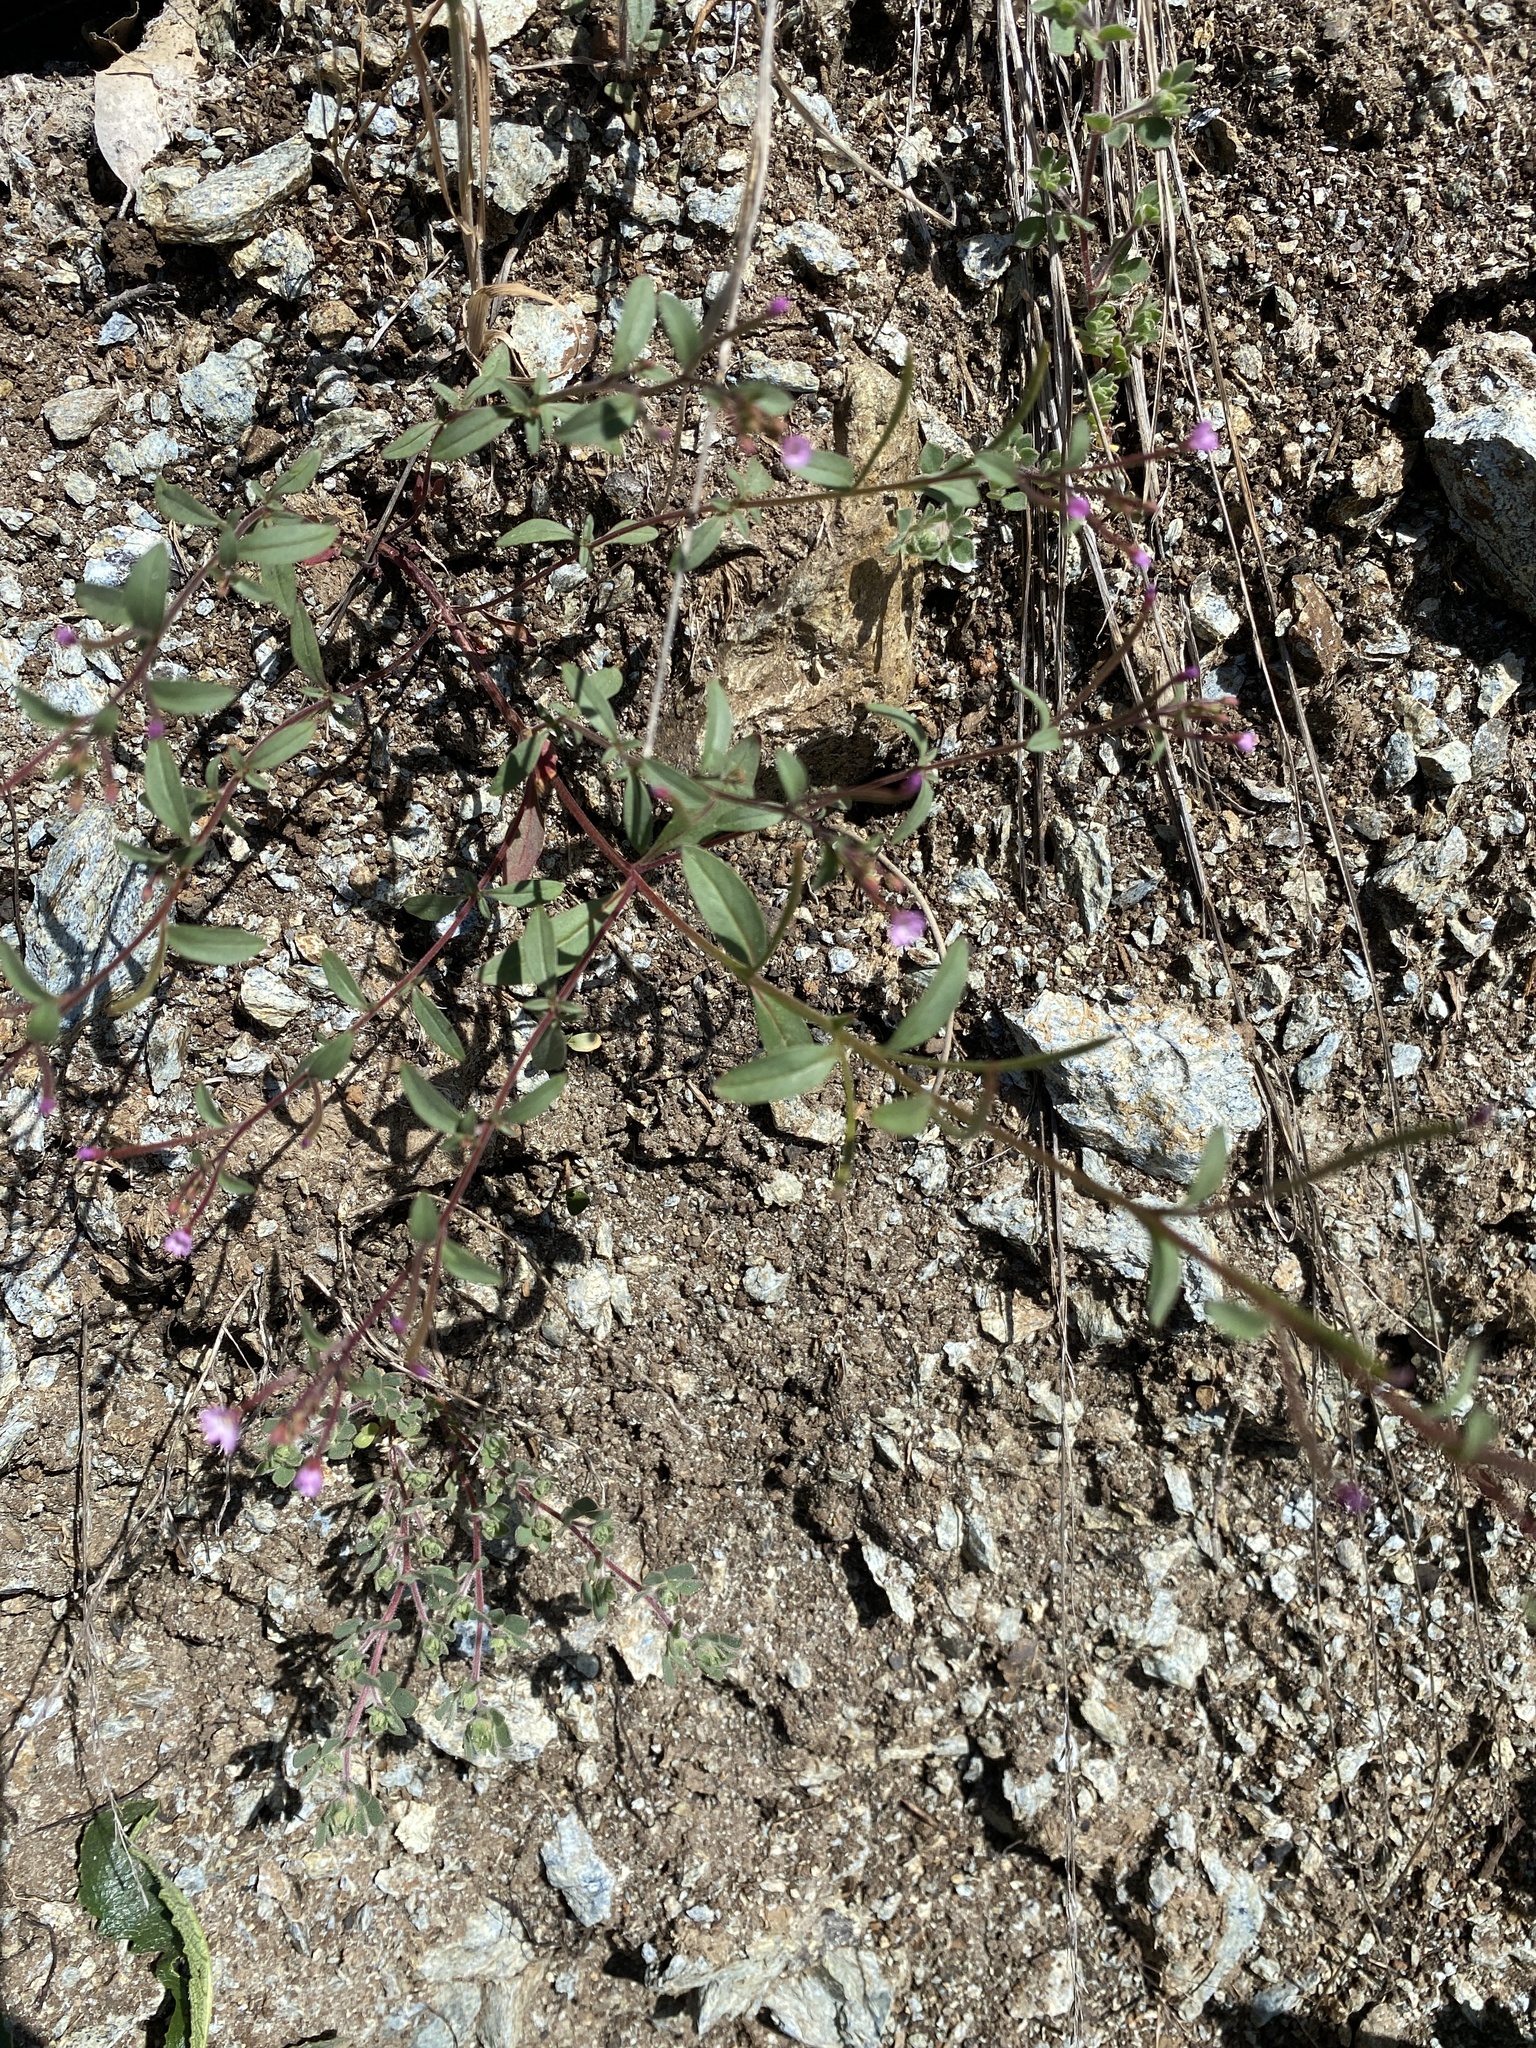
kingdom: Plantae
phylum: Tracheophyta
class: Magnoliopsida
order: Myrtales
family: Onagraceae
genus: Epilobium
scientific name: Epilobium minutum
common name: Chaparral willowherb
